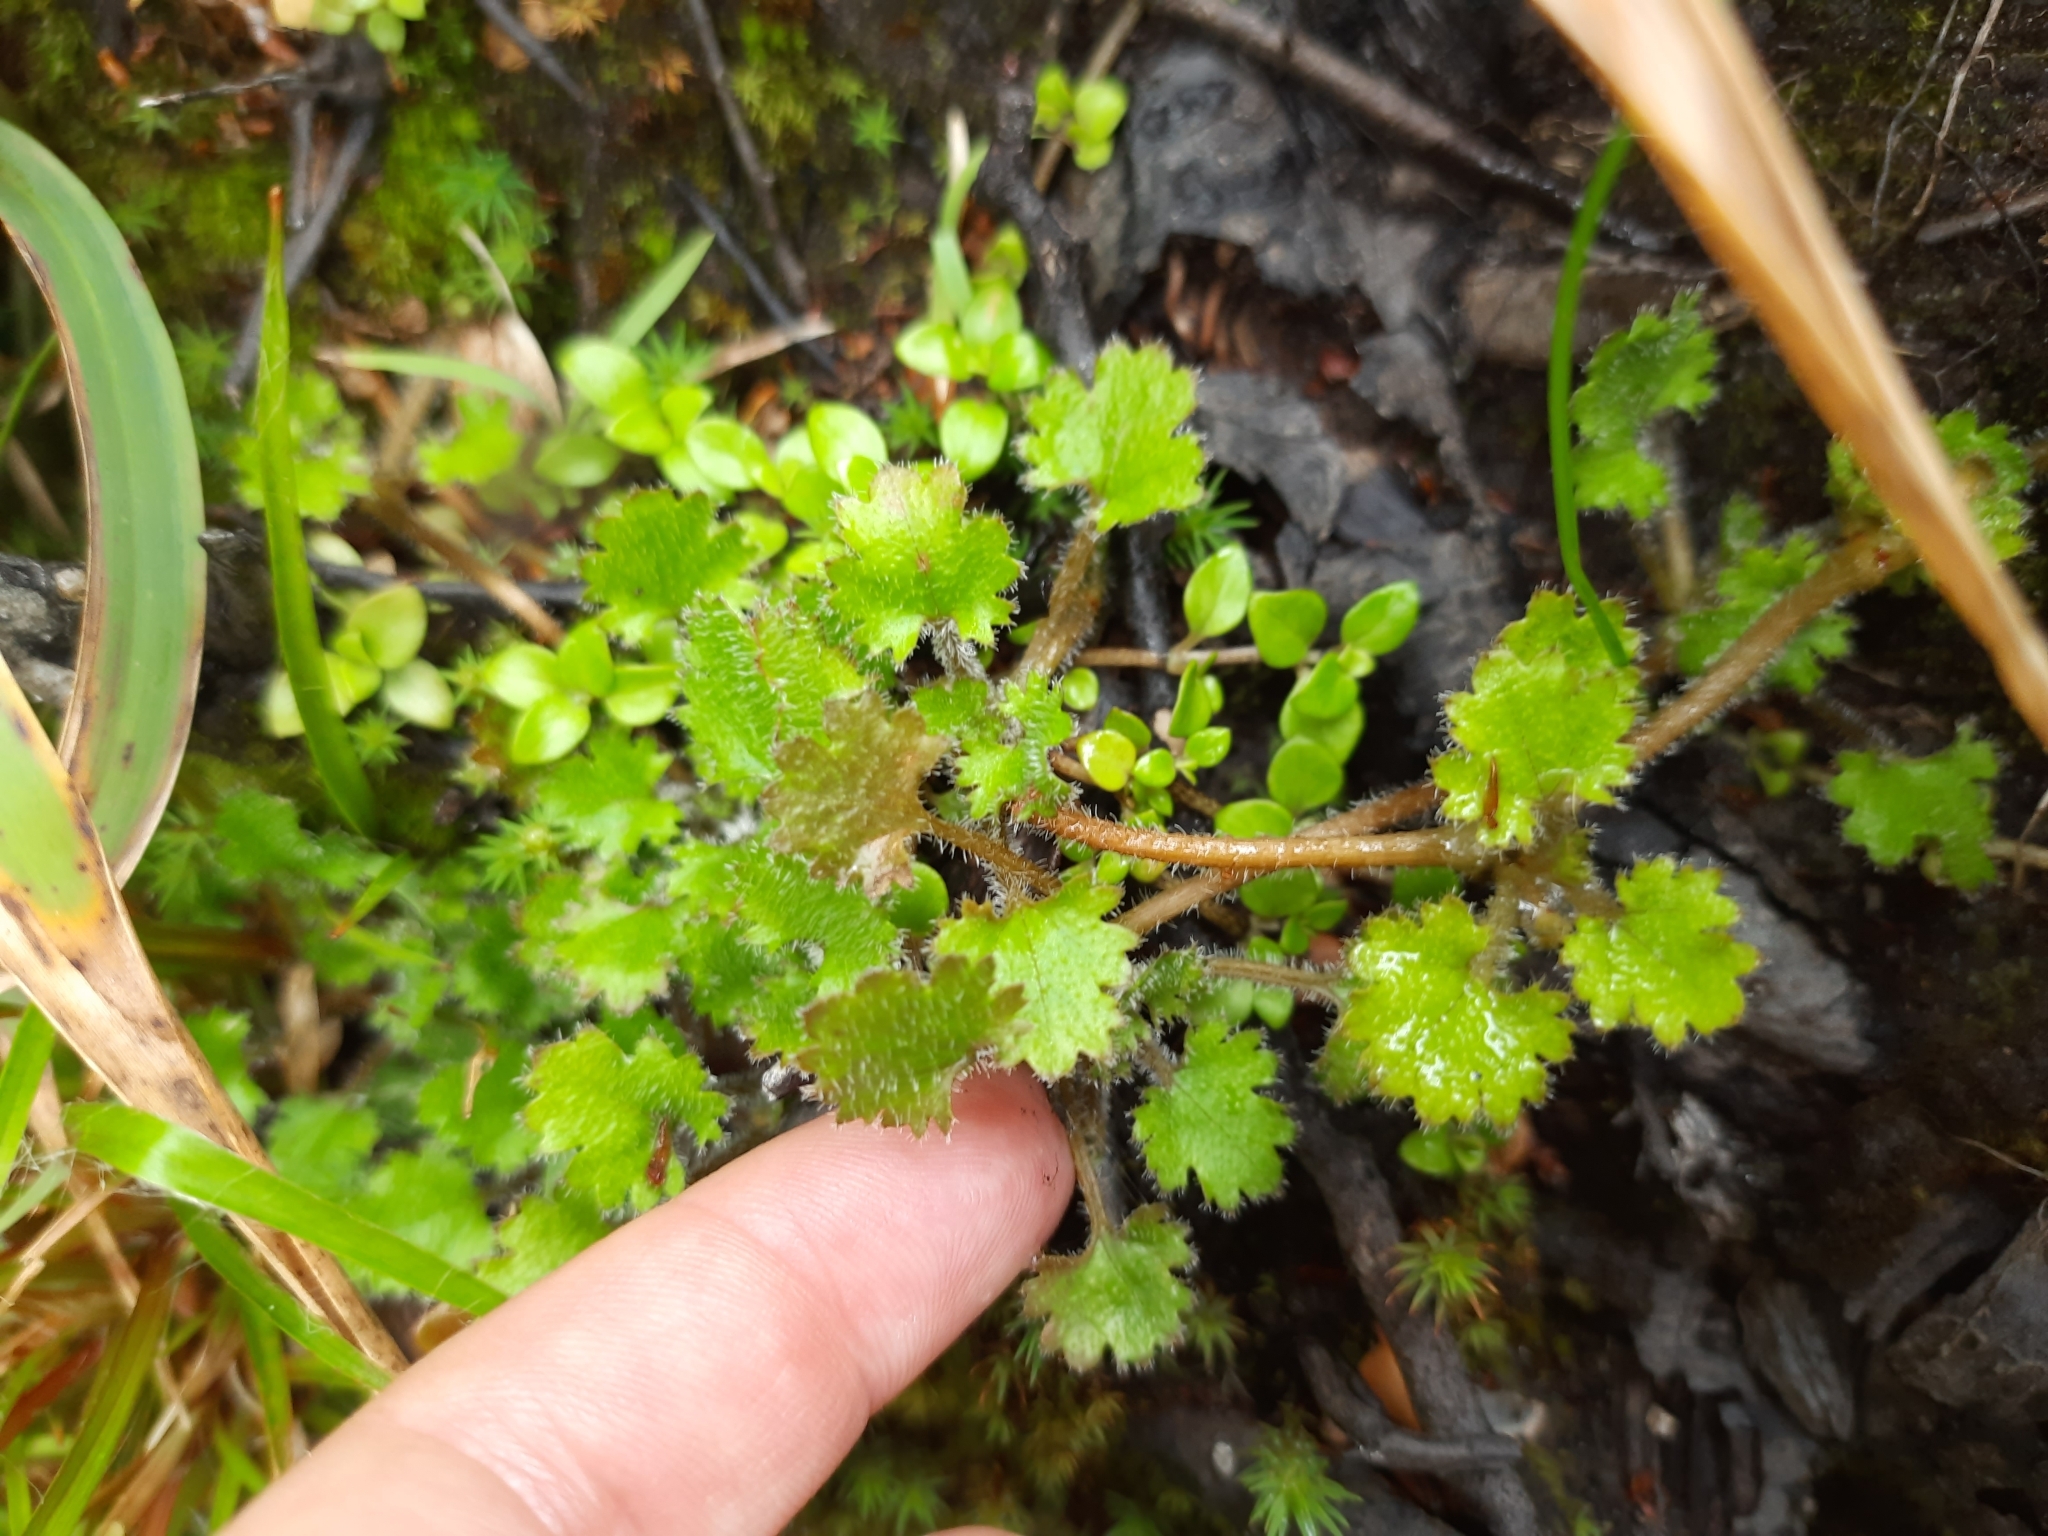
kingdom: Plantae
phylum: Tracheophyta
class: Magnoliopsida
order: Gunnerales
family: Gunneraceae
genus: Gunnera
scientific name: Gunnera monoica
